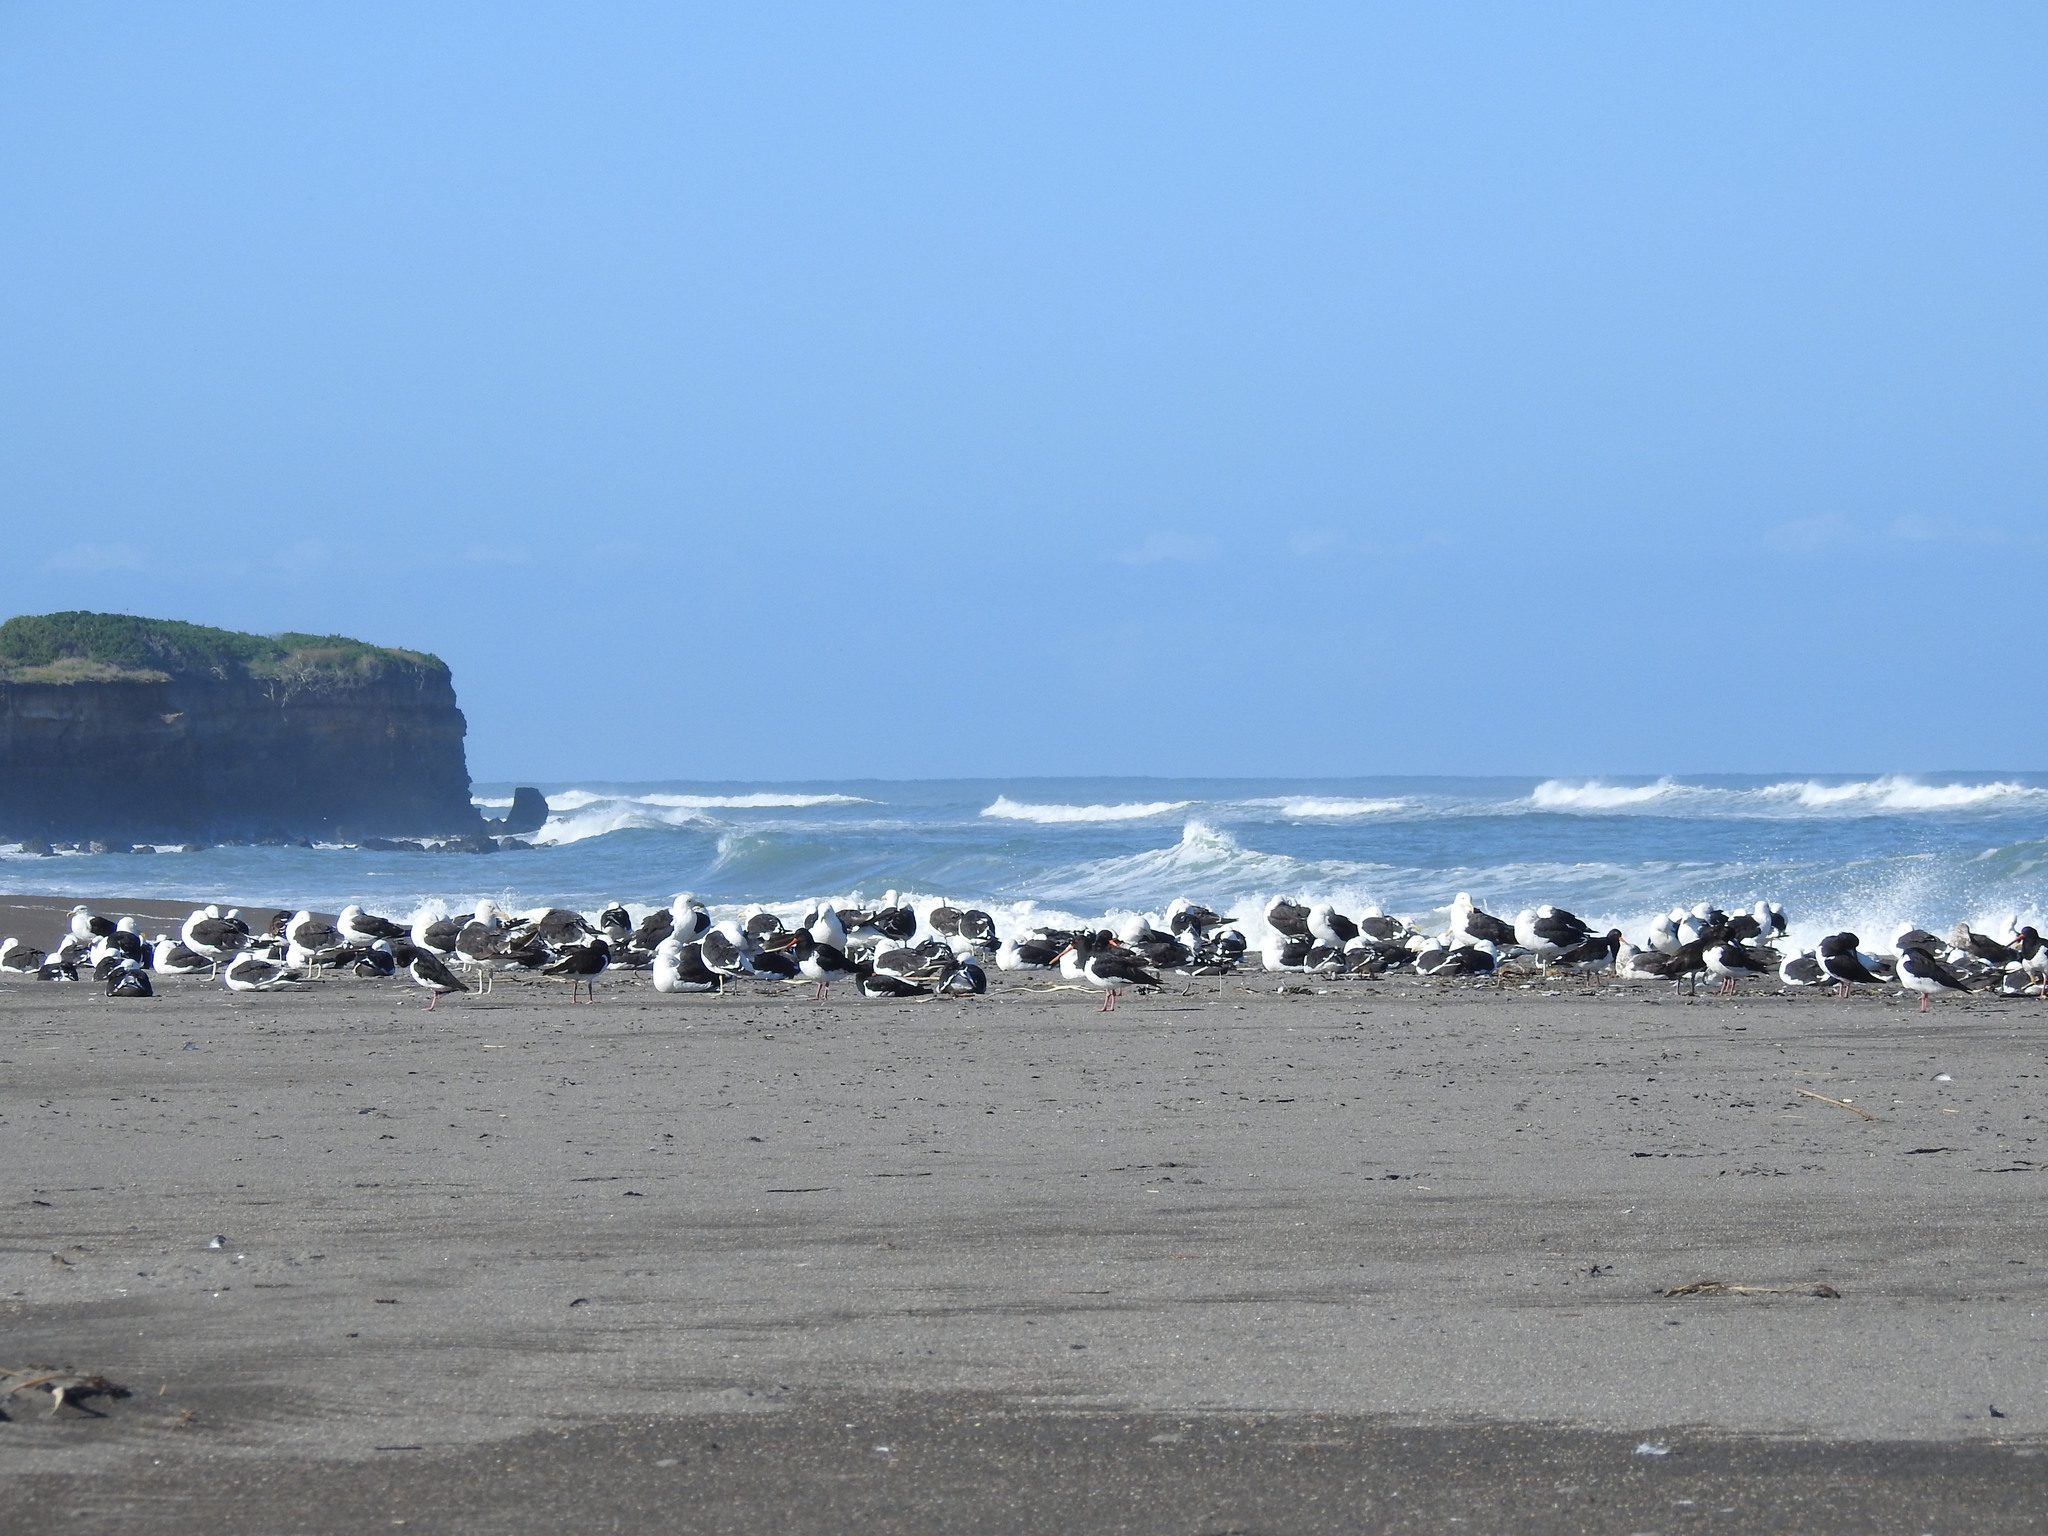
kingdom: Animalia
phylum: Chordata
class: Aves
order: Charadriiformes
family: Laridae
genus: Larus
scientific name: Larus dominicanus
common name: Kelp gull
